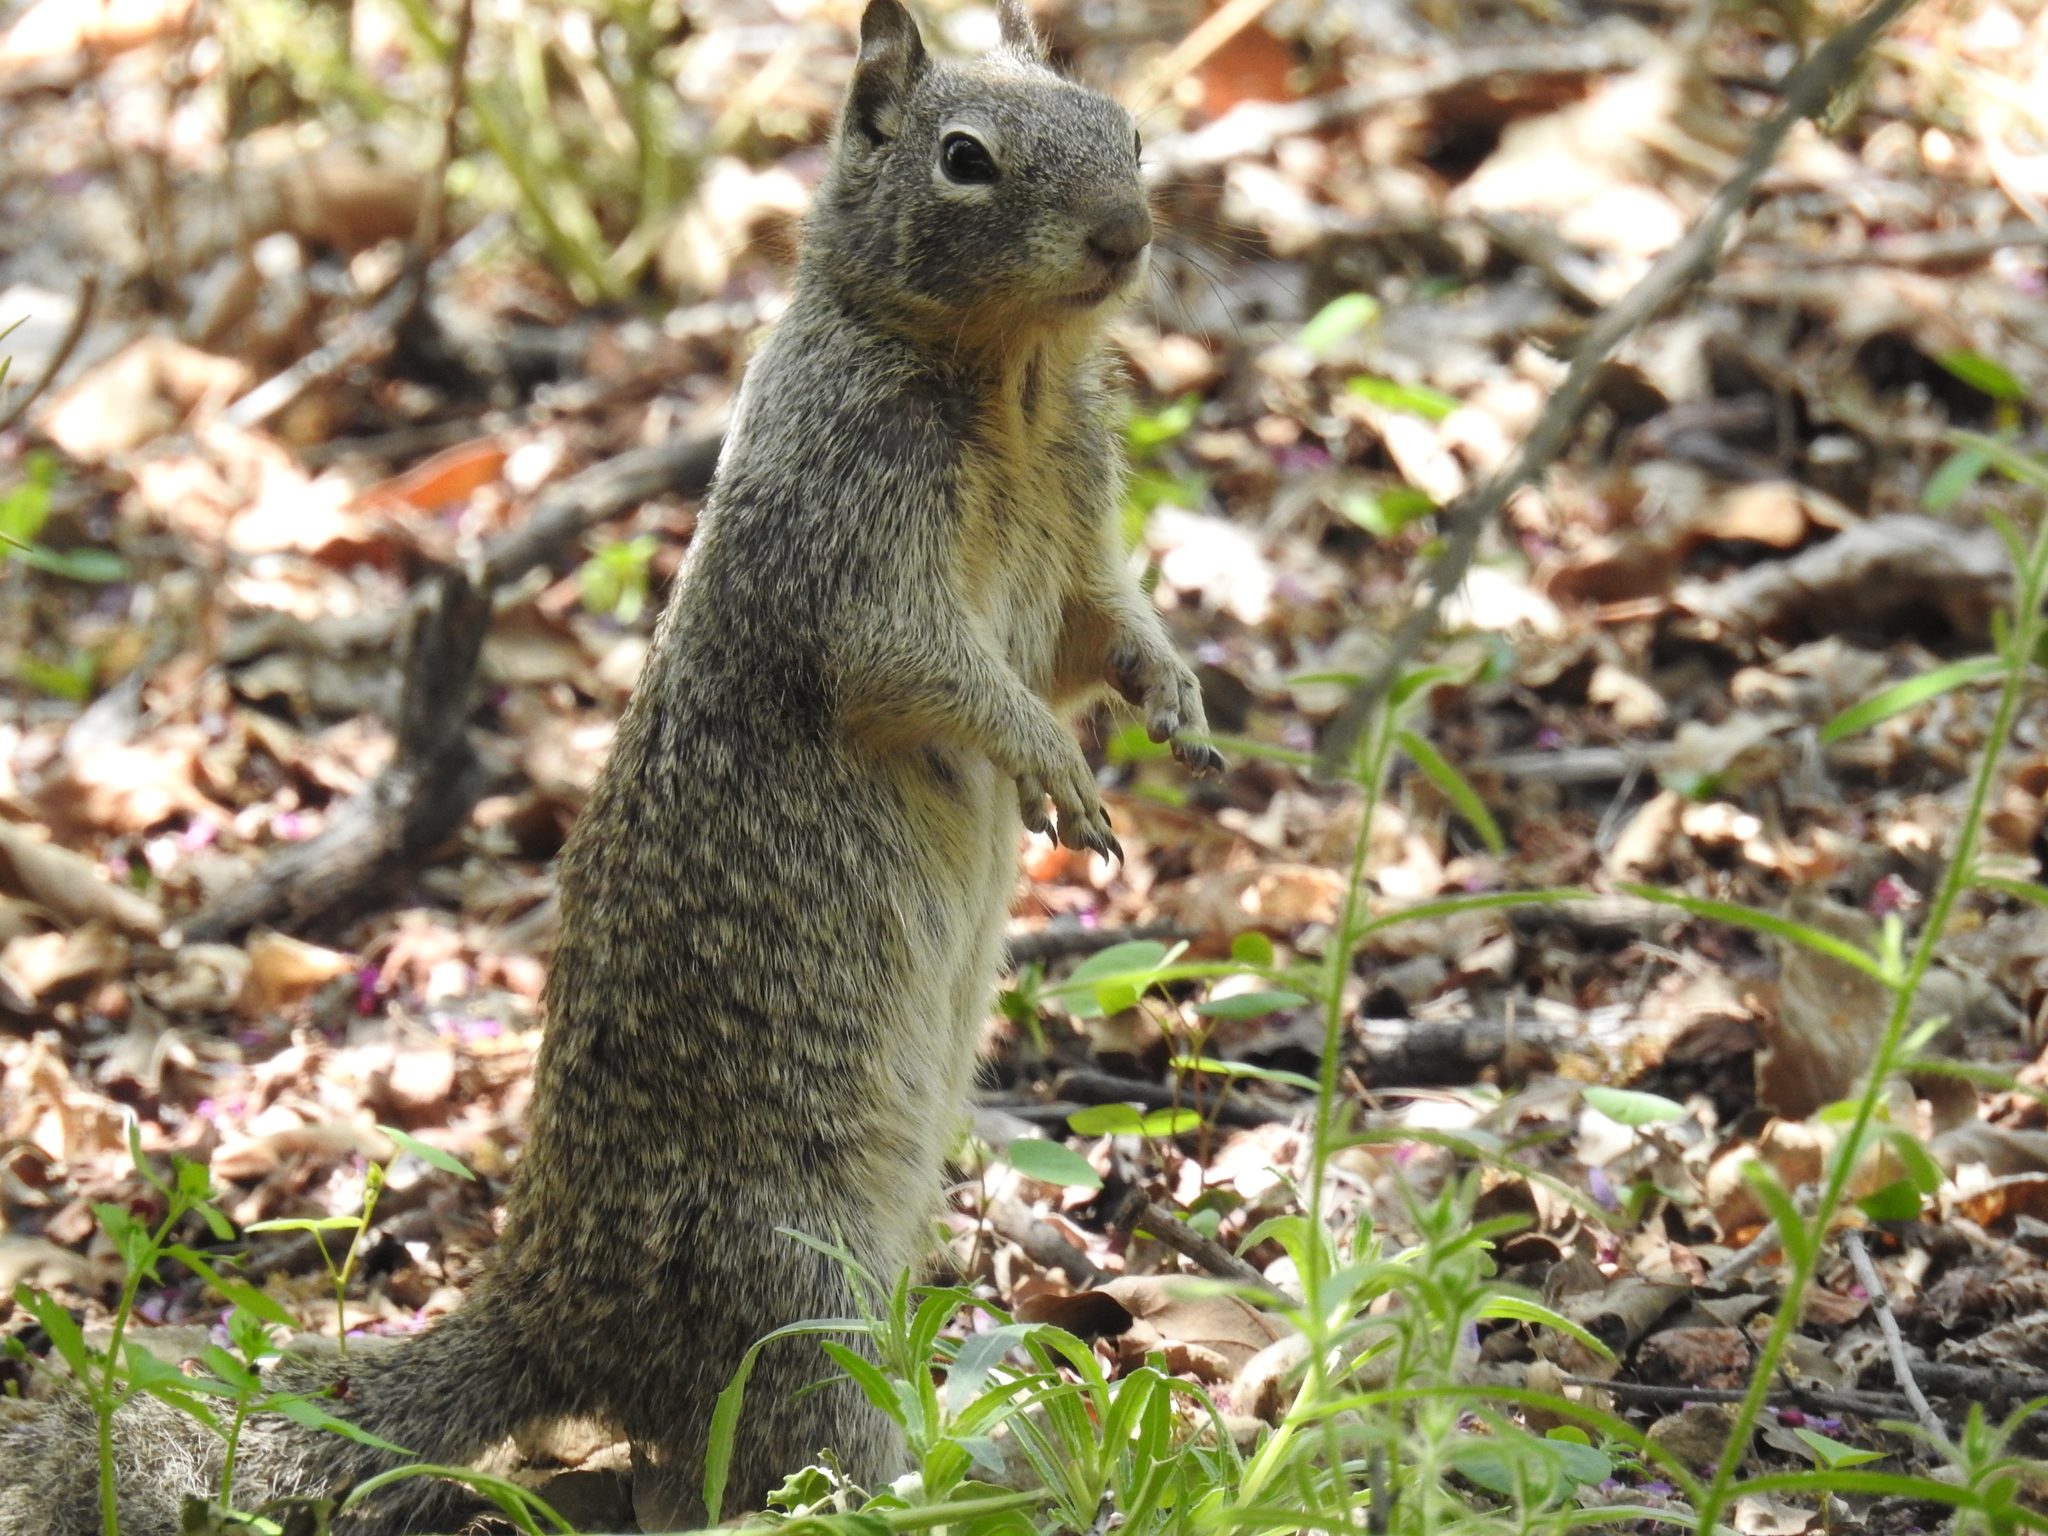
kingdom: Animalia
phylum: Chordata
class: Mammalia
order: Rodentia
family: Sciuridae
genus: Otospermophilus
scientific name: Otospermophilus beecheyi
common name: California ground squirrel
